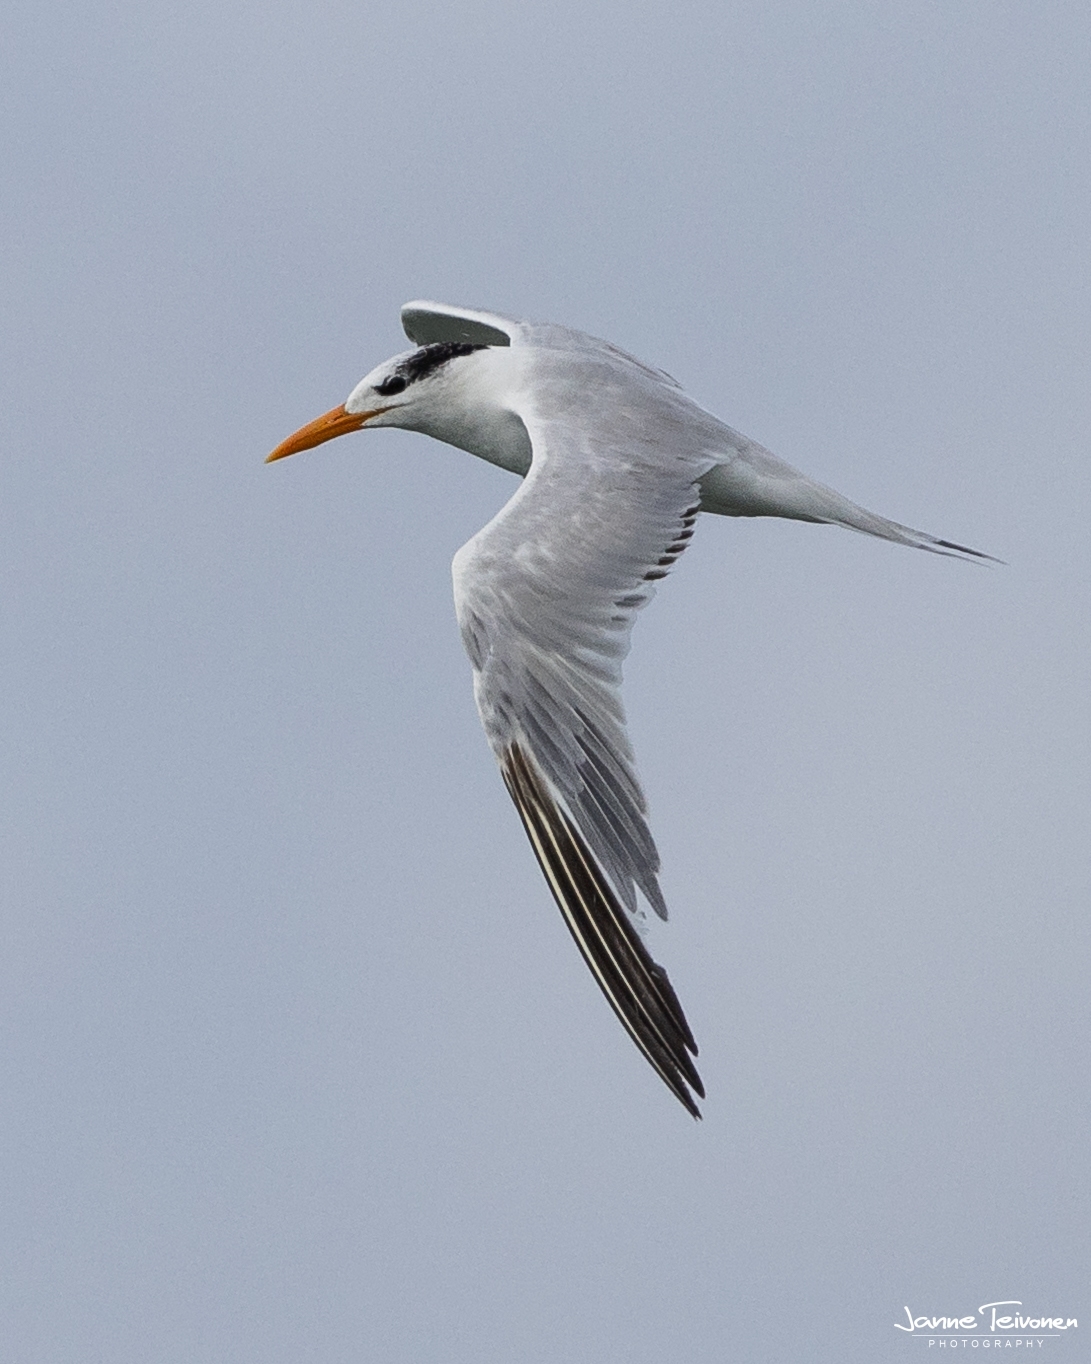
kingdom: Animalia
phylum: Chordata
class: Aves
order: Charadriiformes
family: Laridae
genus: Thalasseus
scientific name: Thalasseus maximus
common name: Royal tern
